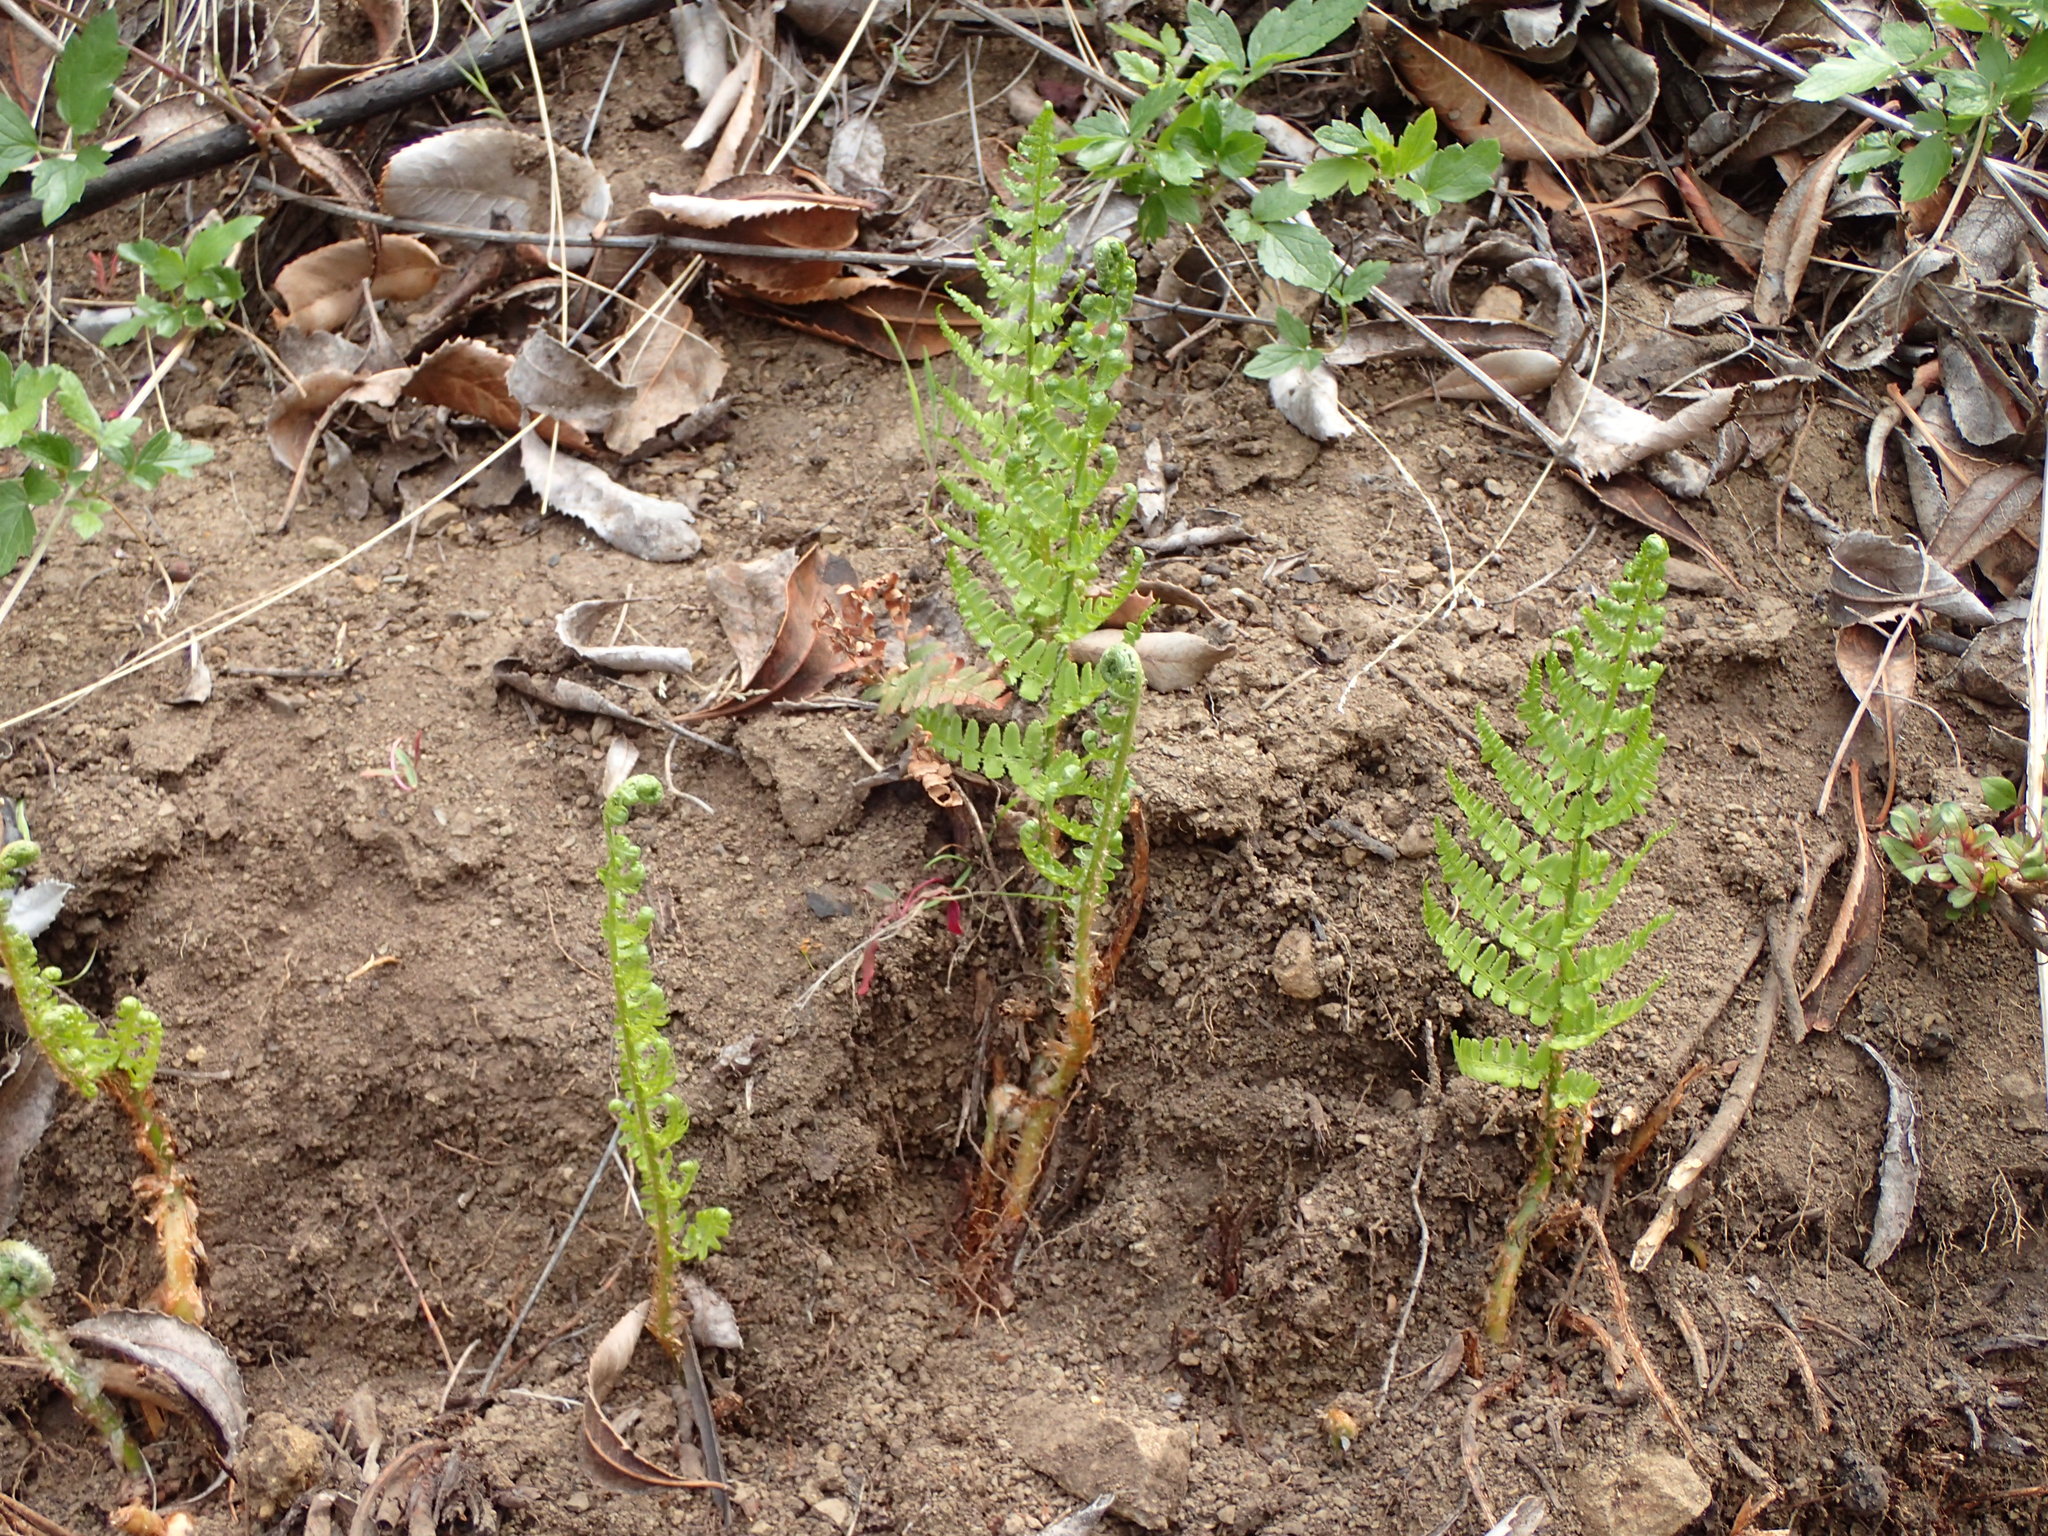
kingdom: Plantae
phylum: Tracheophyta
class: Polypodiopsida
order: Polypodiales
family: Dryopteridaceae
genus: Dryopteris
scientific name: Dryopteris arguta
